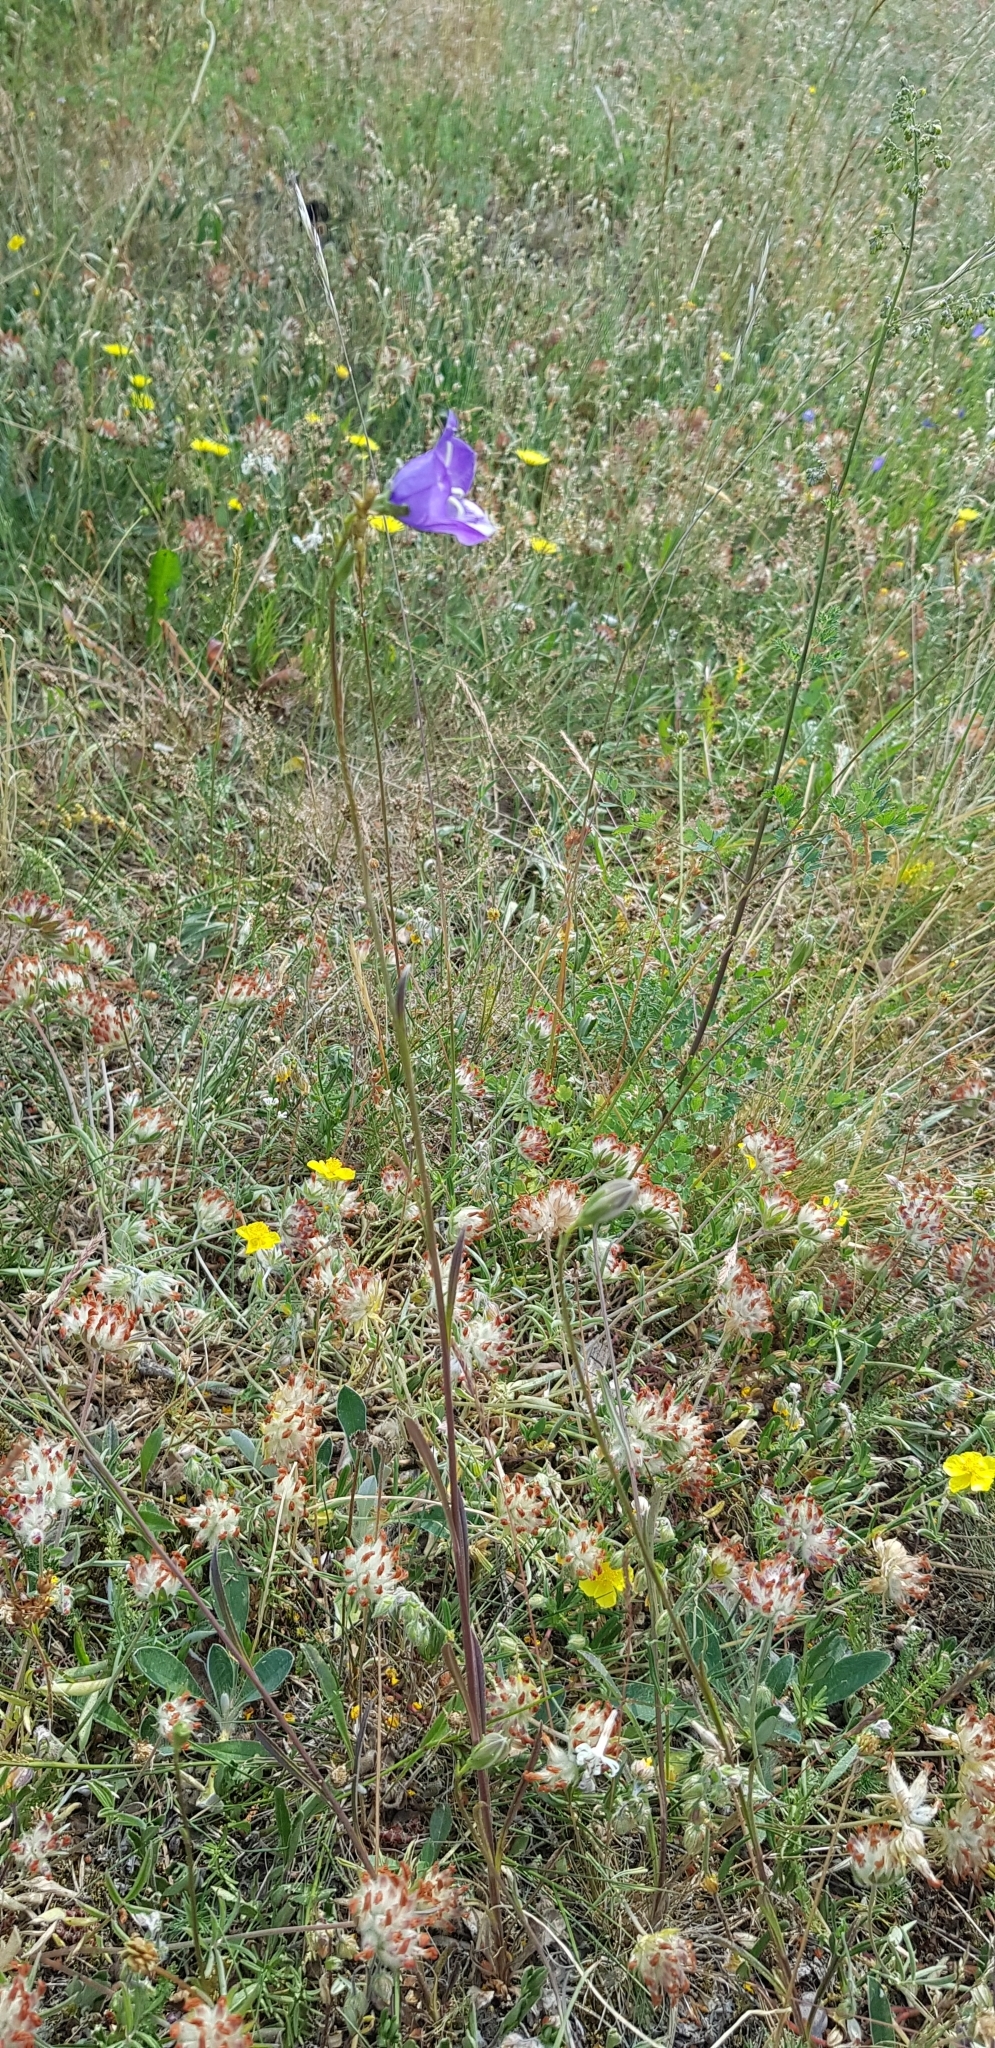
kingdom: Plantae
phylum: Tracheophyta
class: Magnoliopsida
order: Asterales
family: Campanulaceae
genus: Campanula
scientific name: Campanula persicifolia
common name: Peach-leaved bellflower
